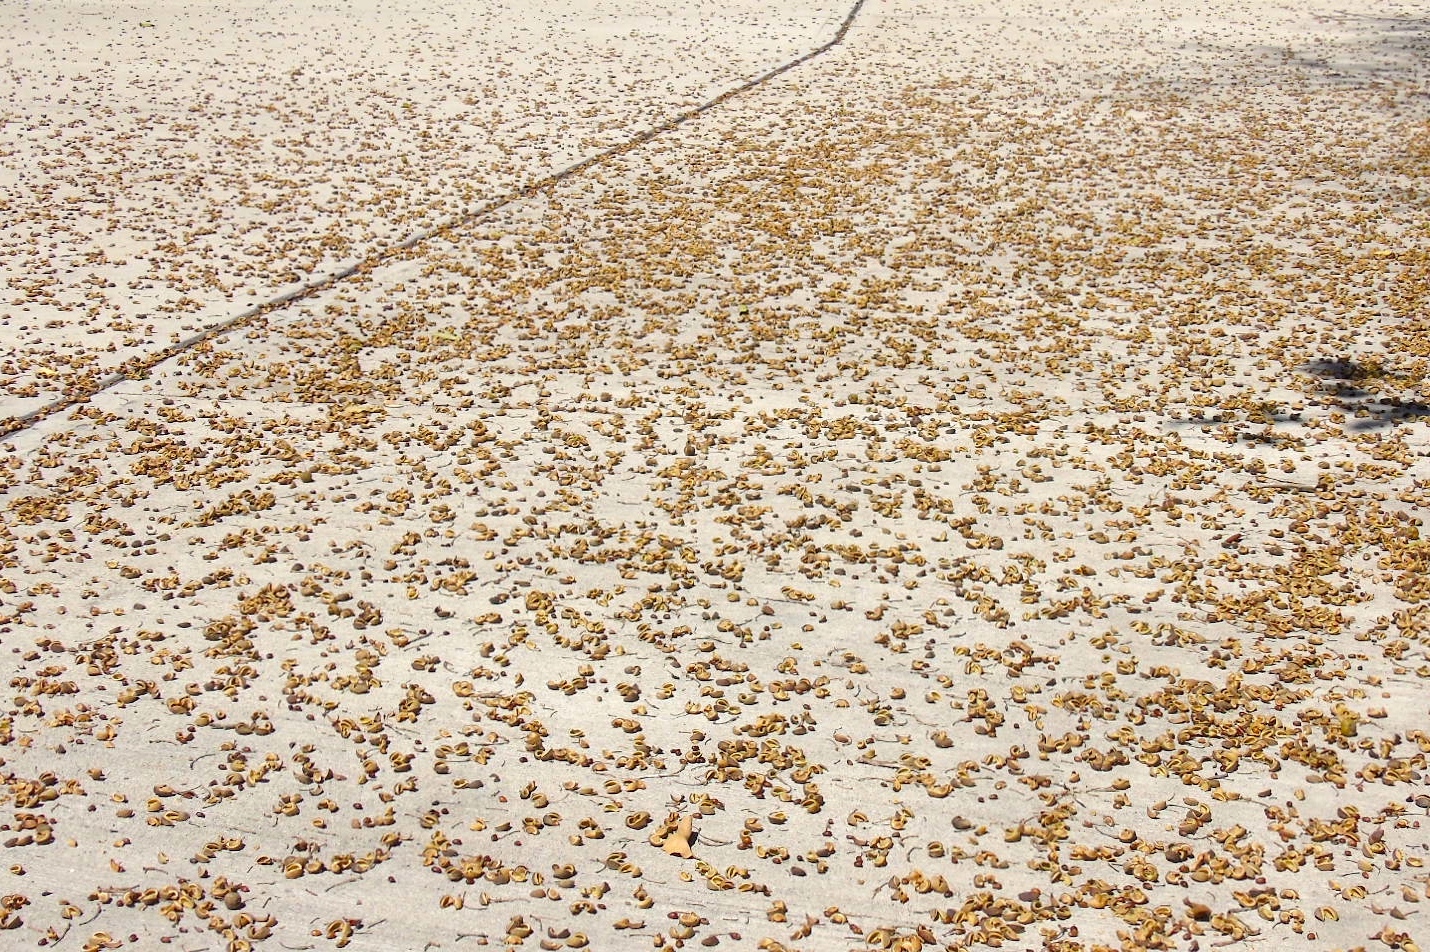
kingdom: Plantae
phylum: Tracheophyta
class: Magnoliopsida
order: Malpighiales
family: Picrodendraceae
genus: Piranhea
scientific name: Piranhea mexicana
